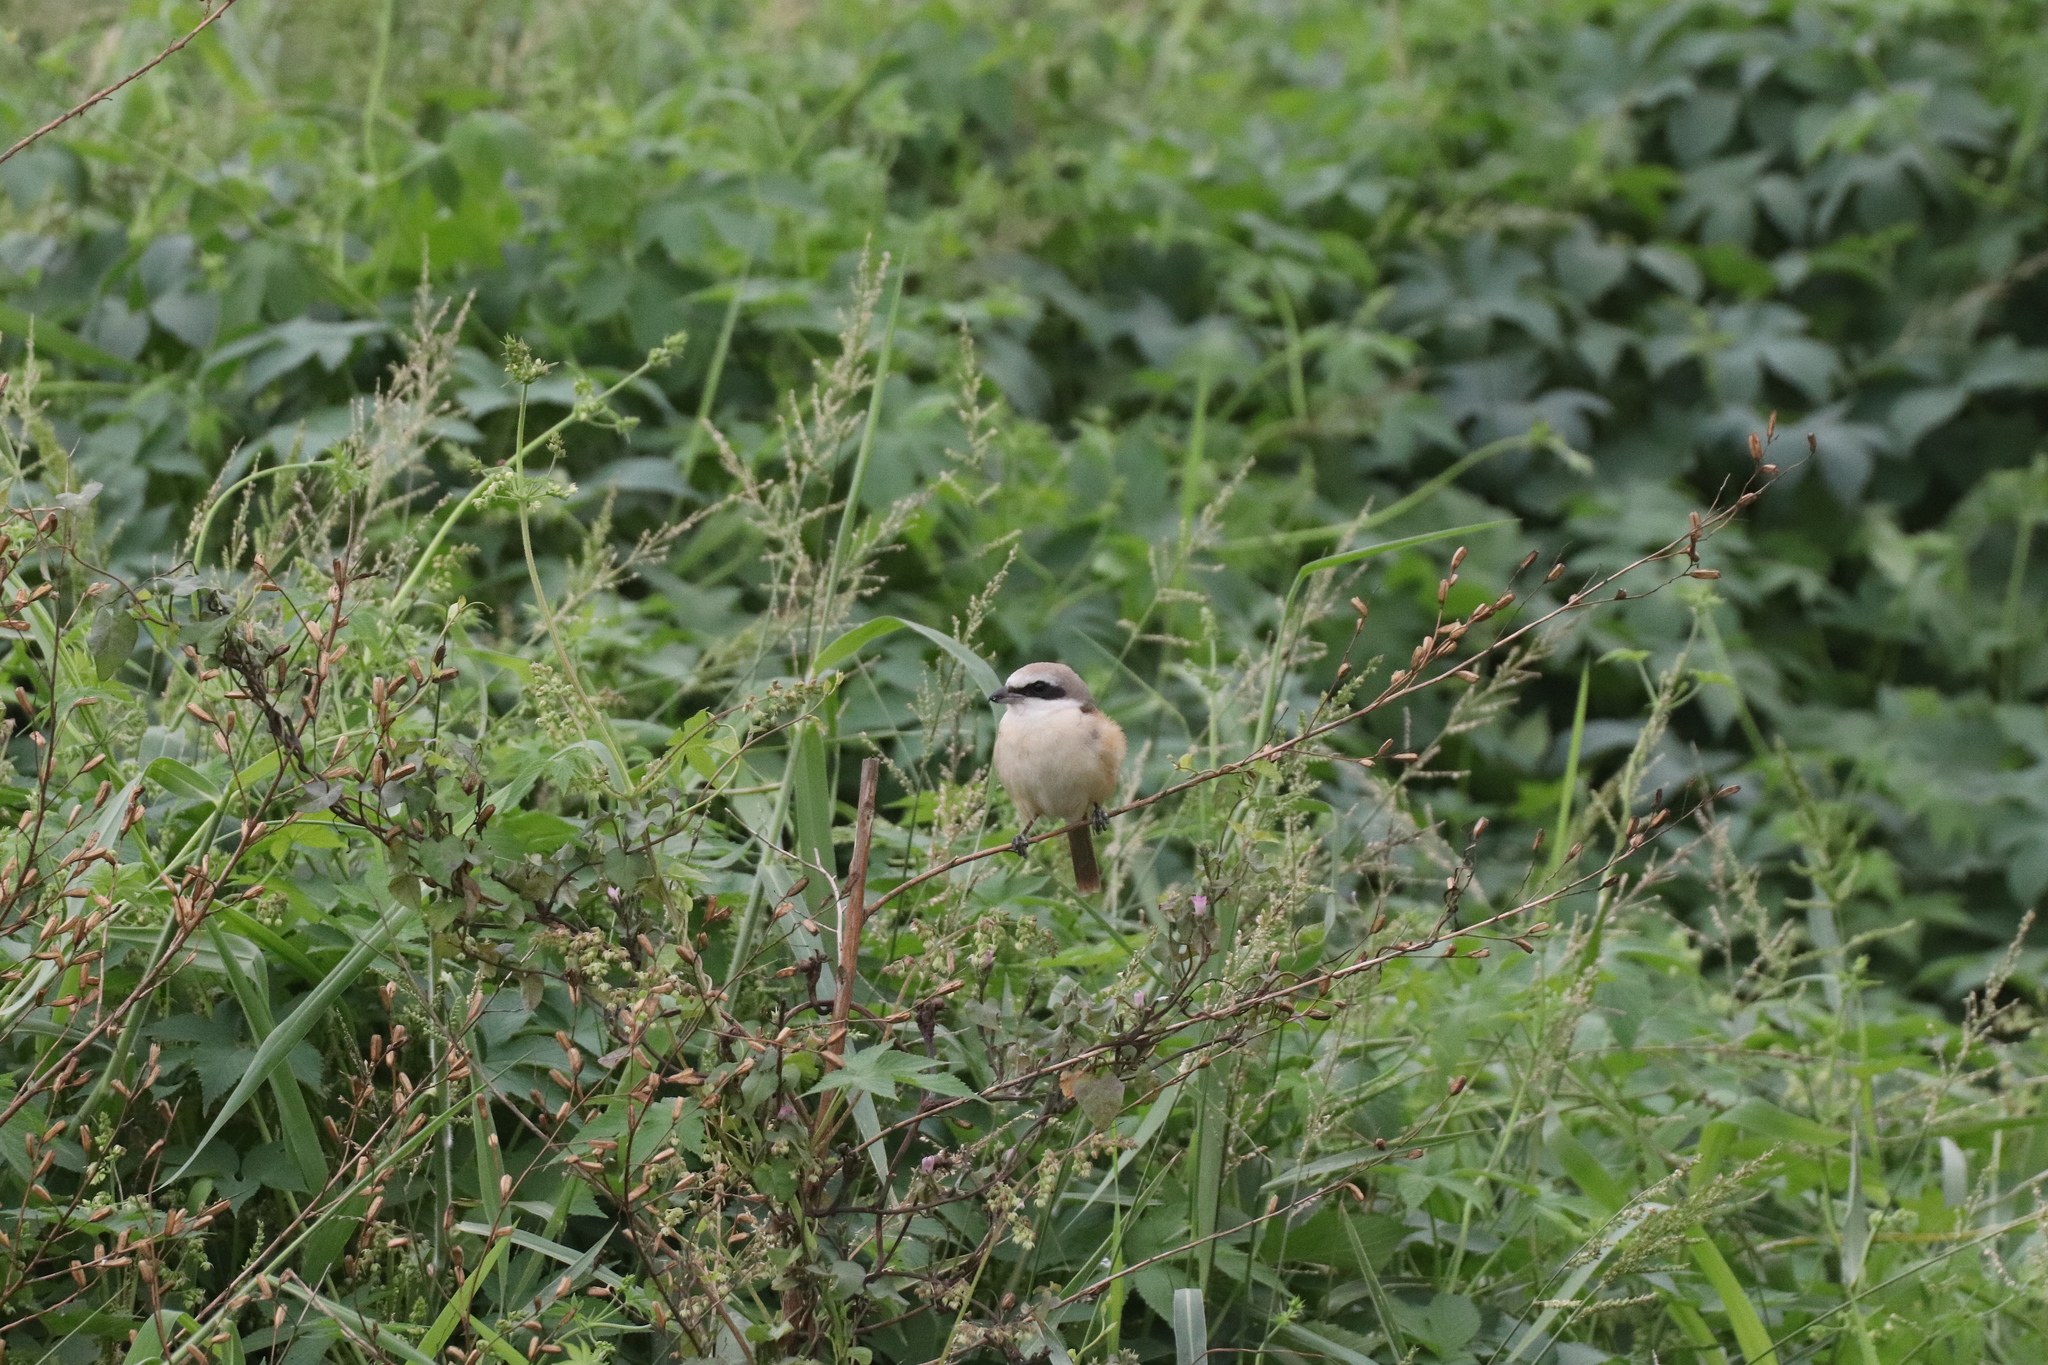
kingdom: Animalia
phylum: Chordata
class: Aves
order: Passeriformes
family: Laniidae
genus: Lanius
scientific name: Lanius cristatus
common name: Brown shrike
